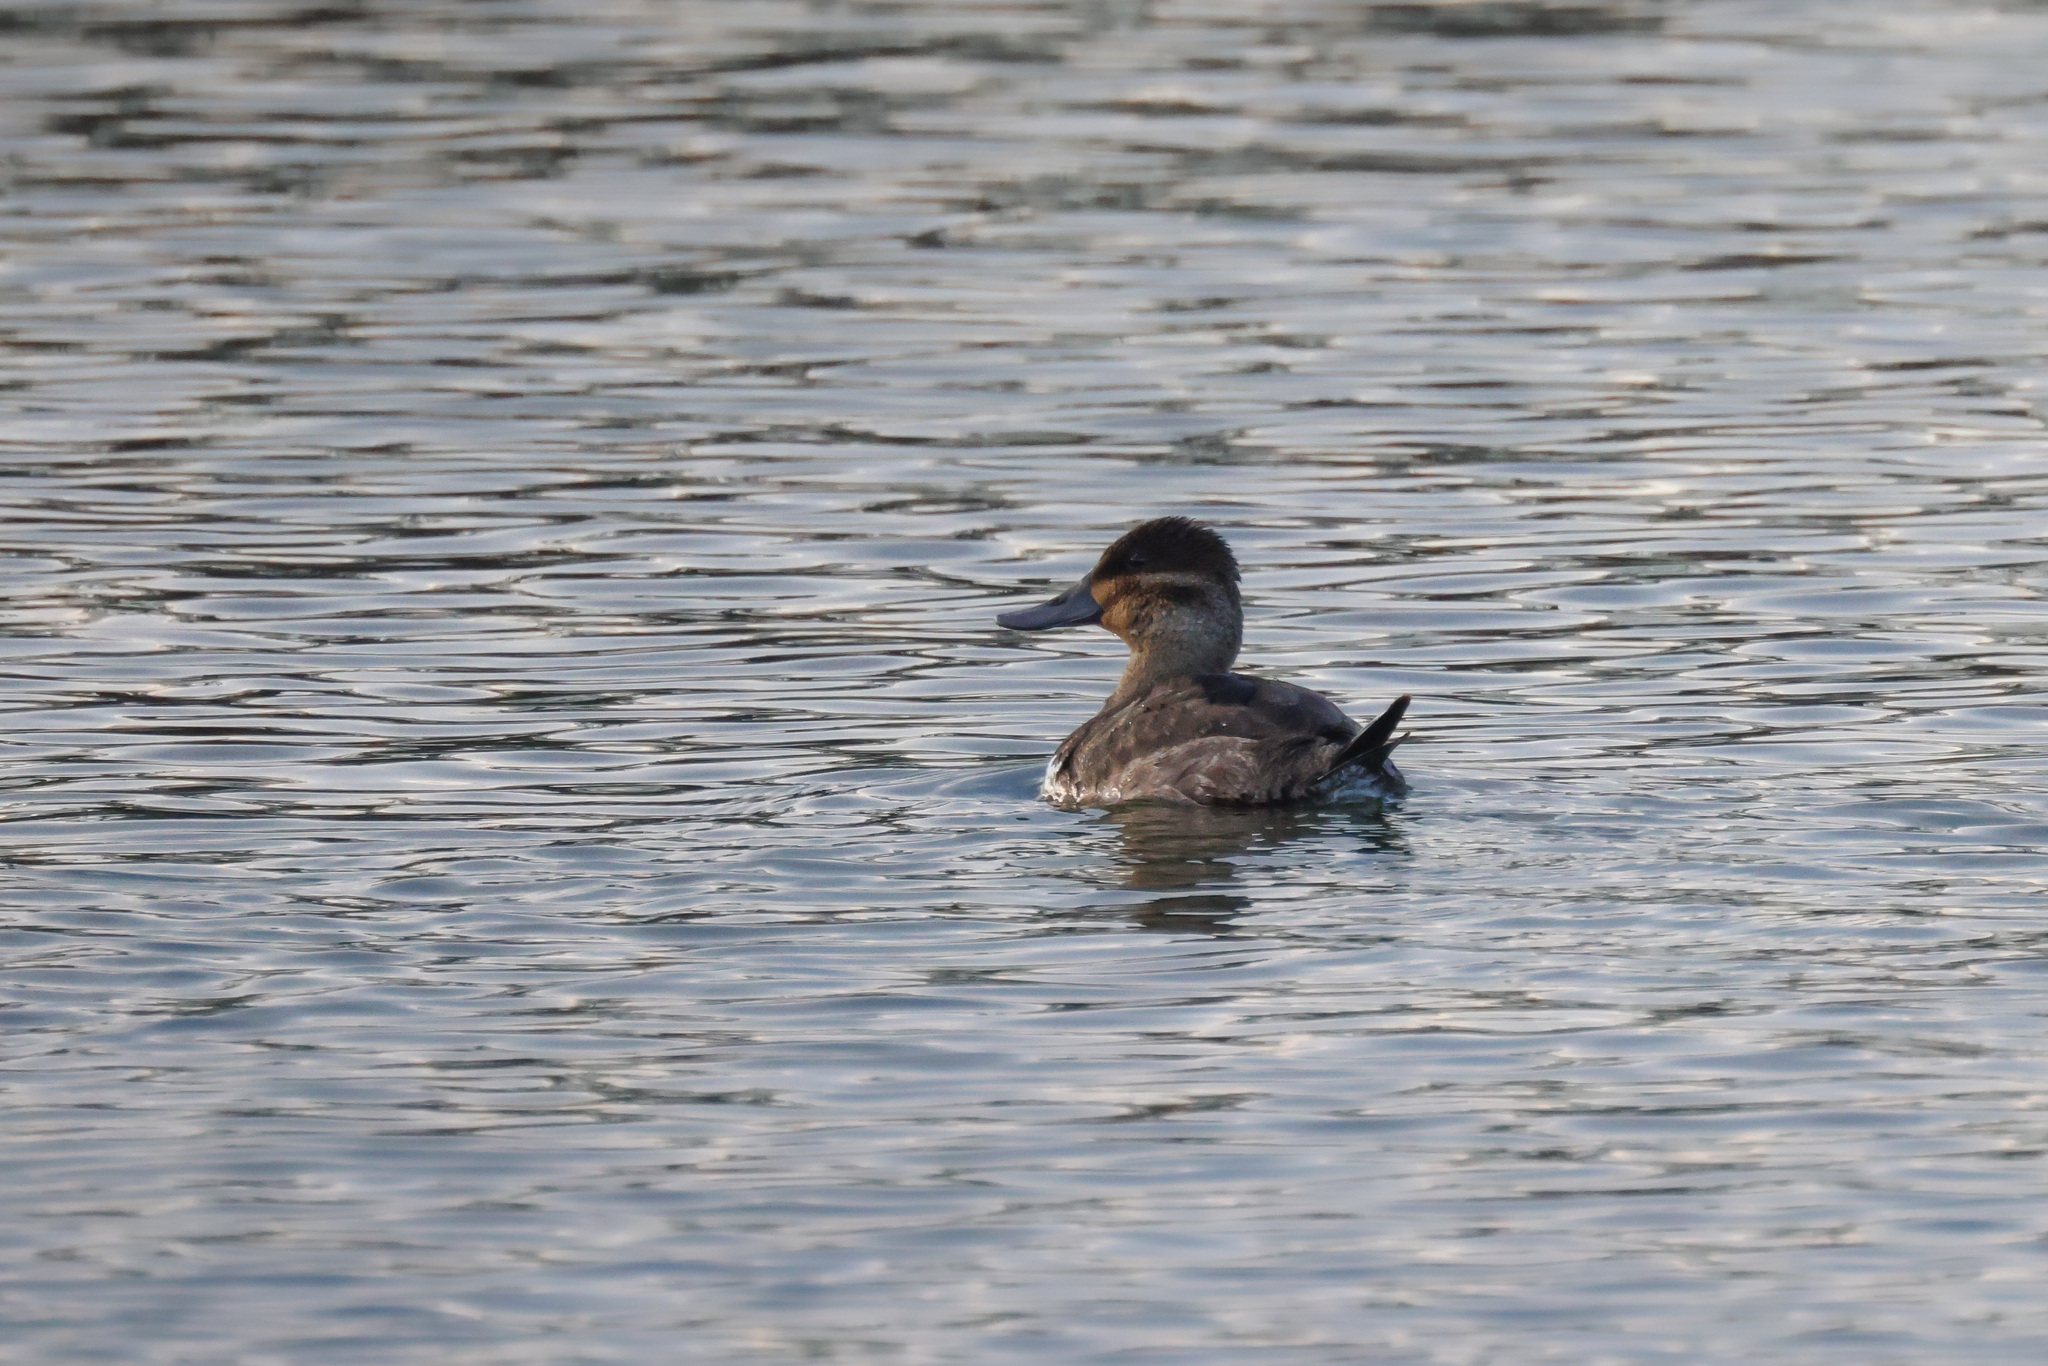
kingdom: Animalia
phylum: Chordata
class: Aves
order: Anseriformes
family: Anatidae
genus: Oxyura
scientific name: Oxyura jamaicensis
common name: Ruddy duck
